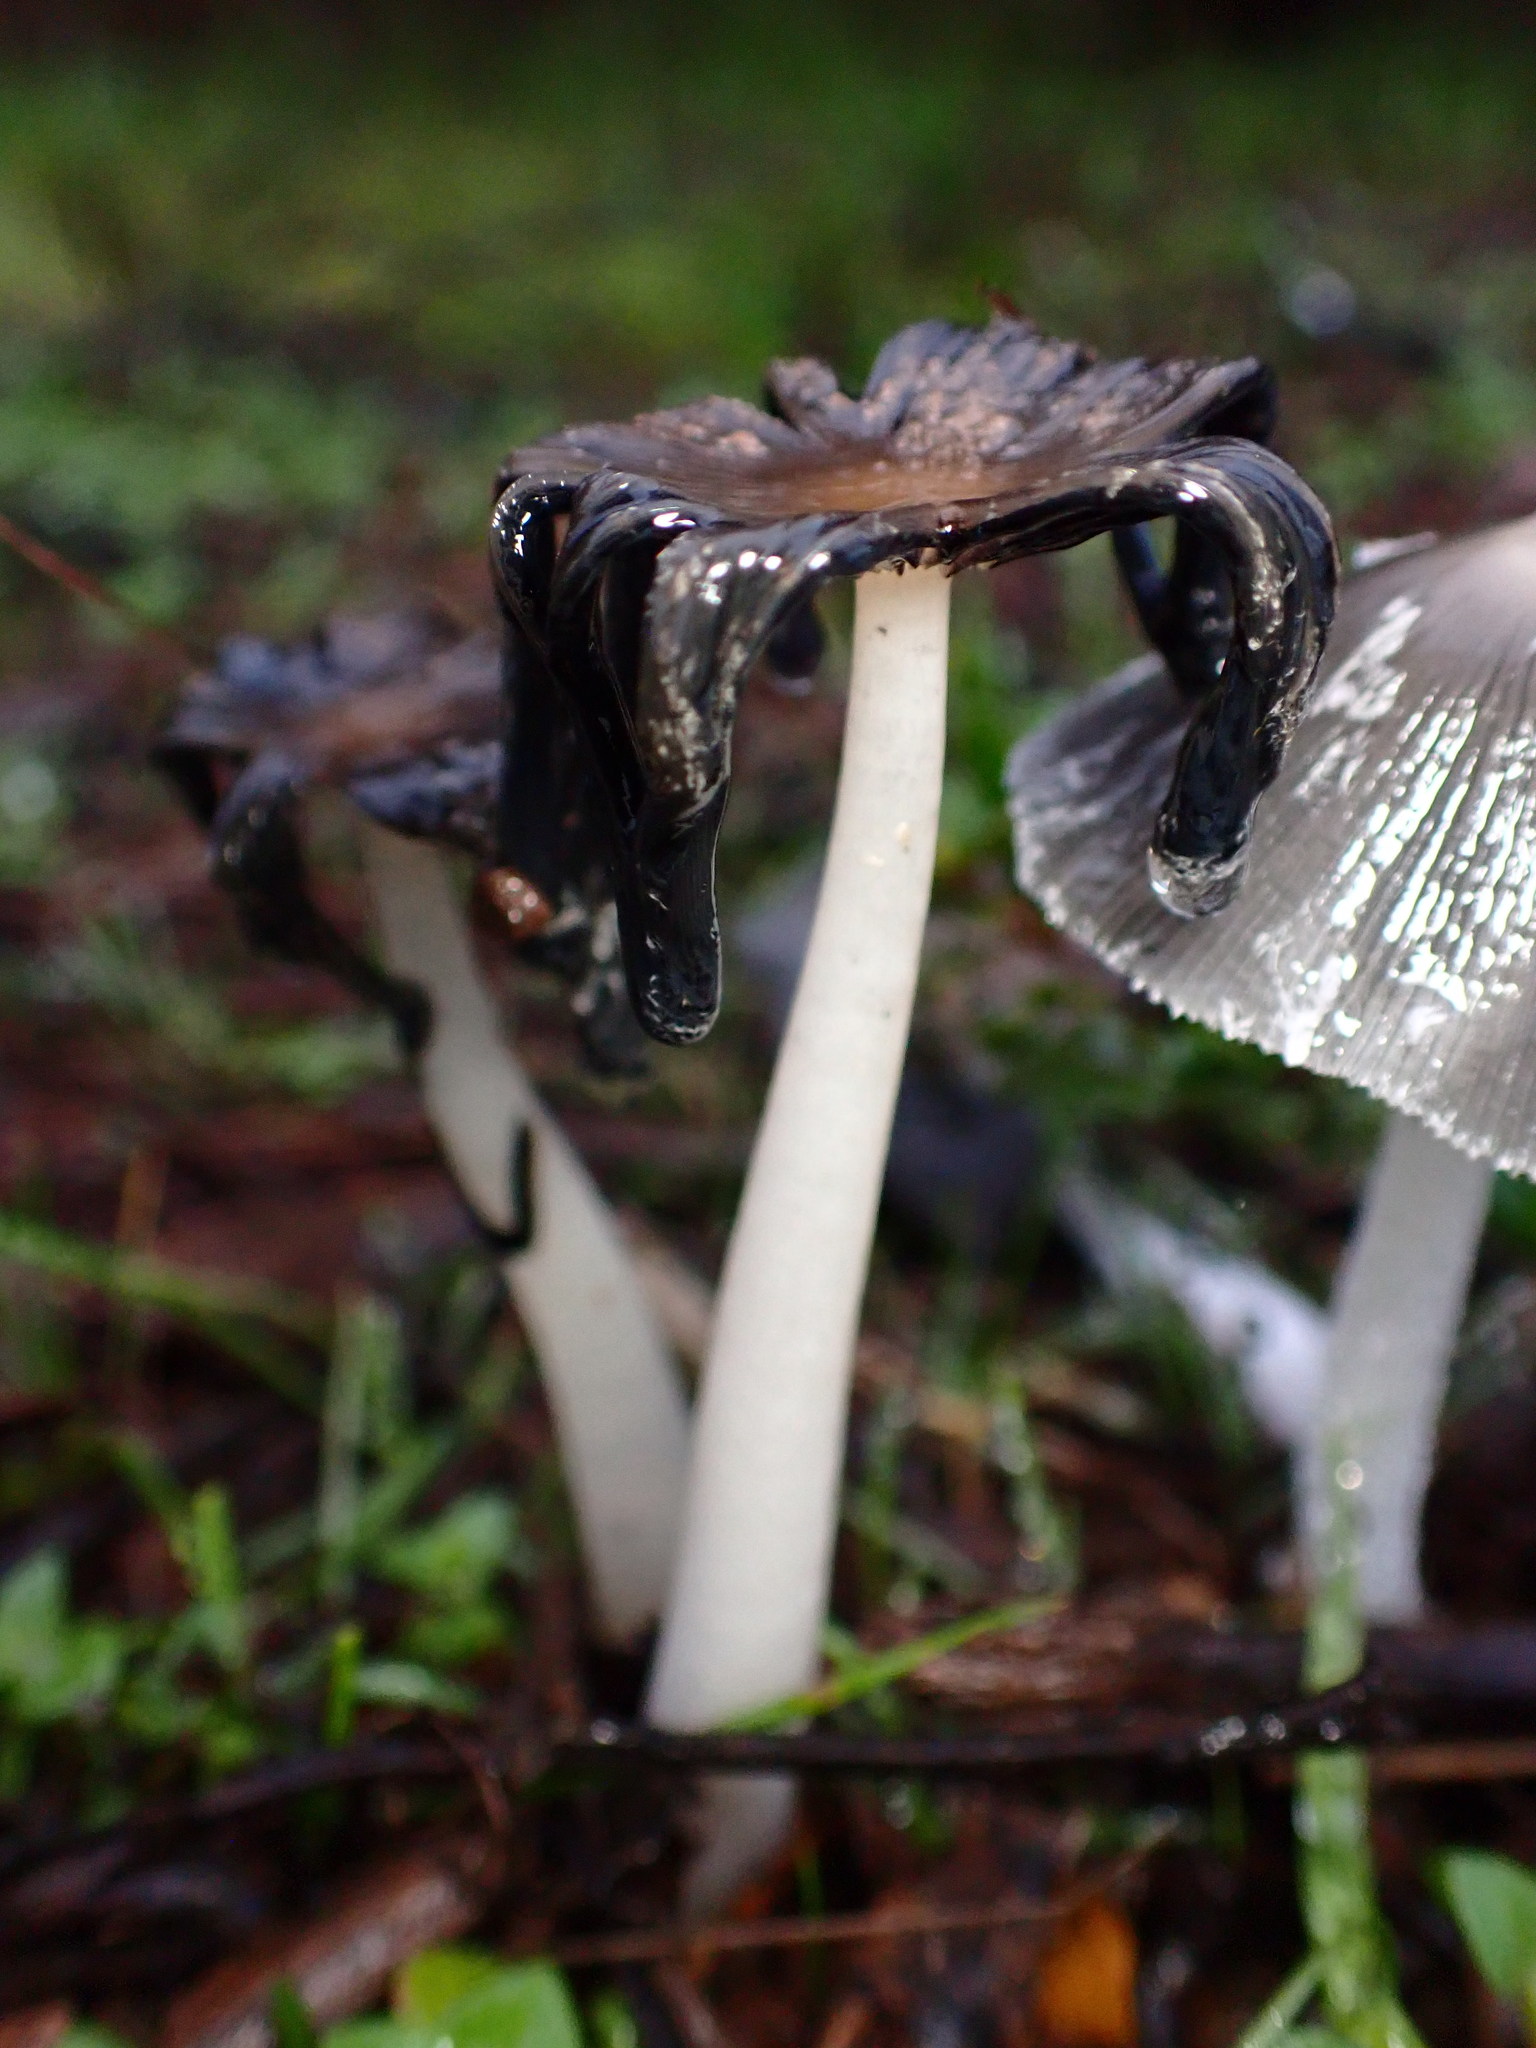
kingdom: Fungi
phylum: Basidiomycota
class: Agaricomycetes
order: Agaricales
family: Psathyrellaceae
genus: Coprinopsis
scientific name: Coprinopsis lagopus
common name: Hare'sfoot inkcap
